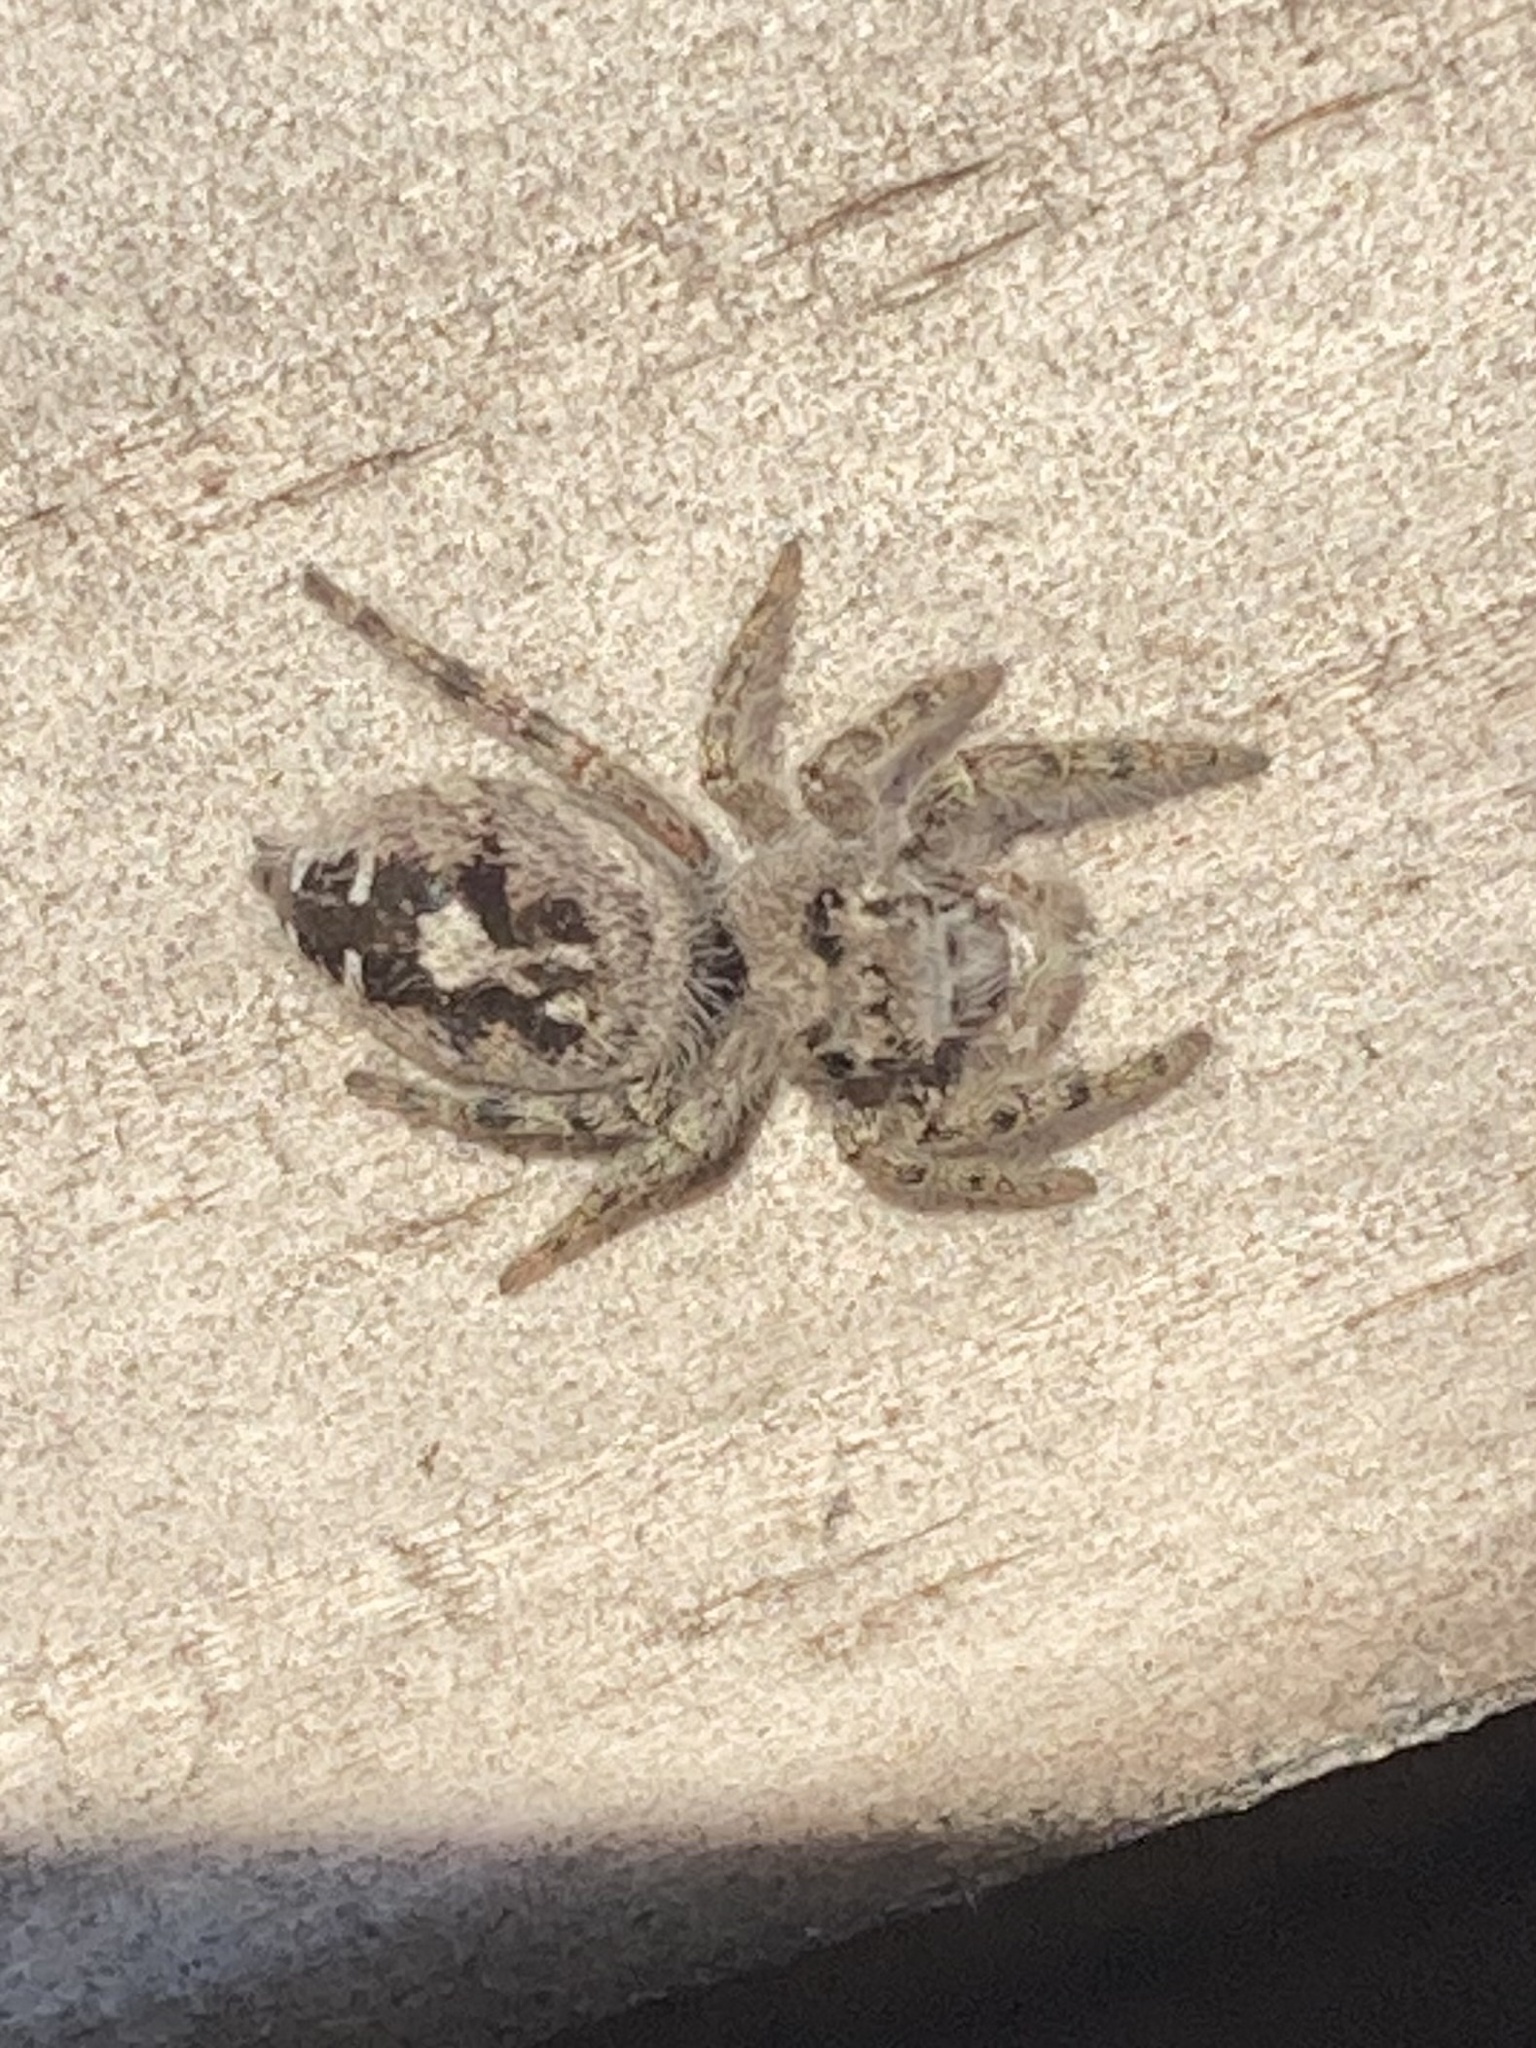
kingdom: Animalia
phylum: Arthropoda
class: Arachnida
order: Araneae
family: Salticidae
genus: Phidippus
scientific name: Phidippus putnami
